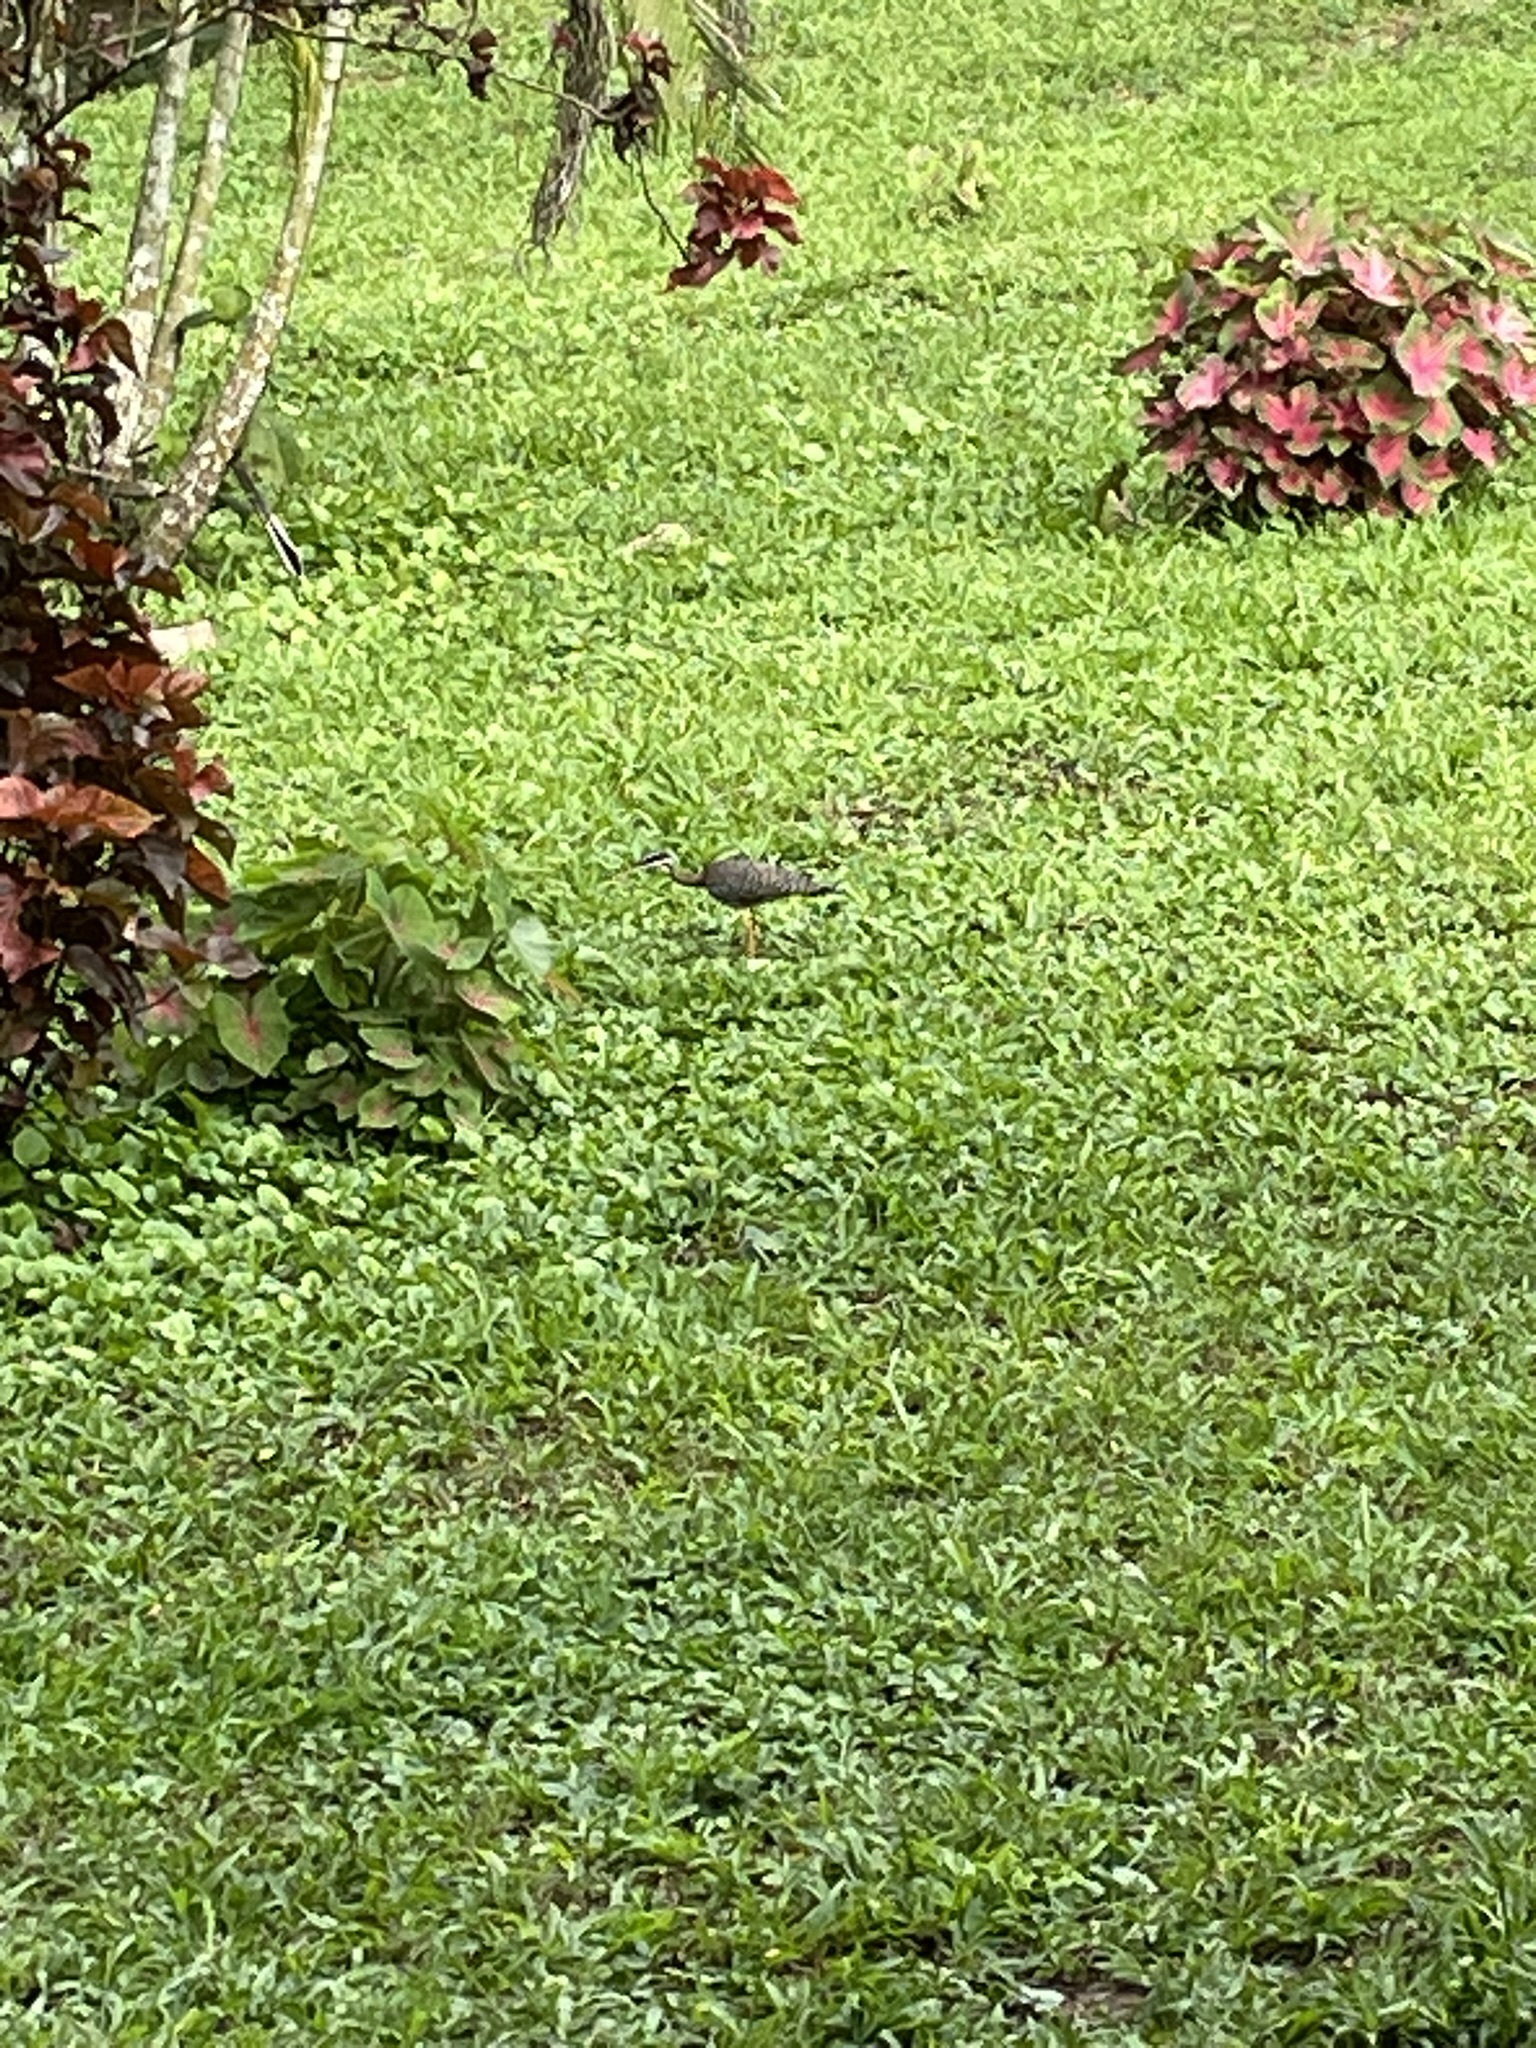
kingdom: Animalia
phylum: Chordata
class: Aves
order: Eurypygiformes
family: Eurypygidae
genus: Eurypyga
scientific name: Eurypyga helias
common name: Sunbittern
